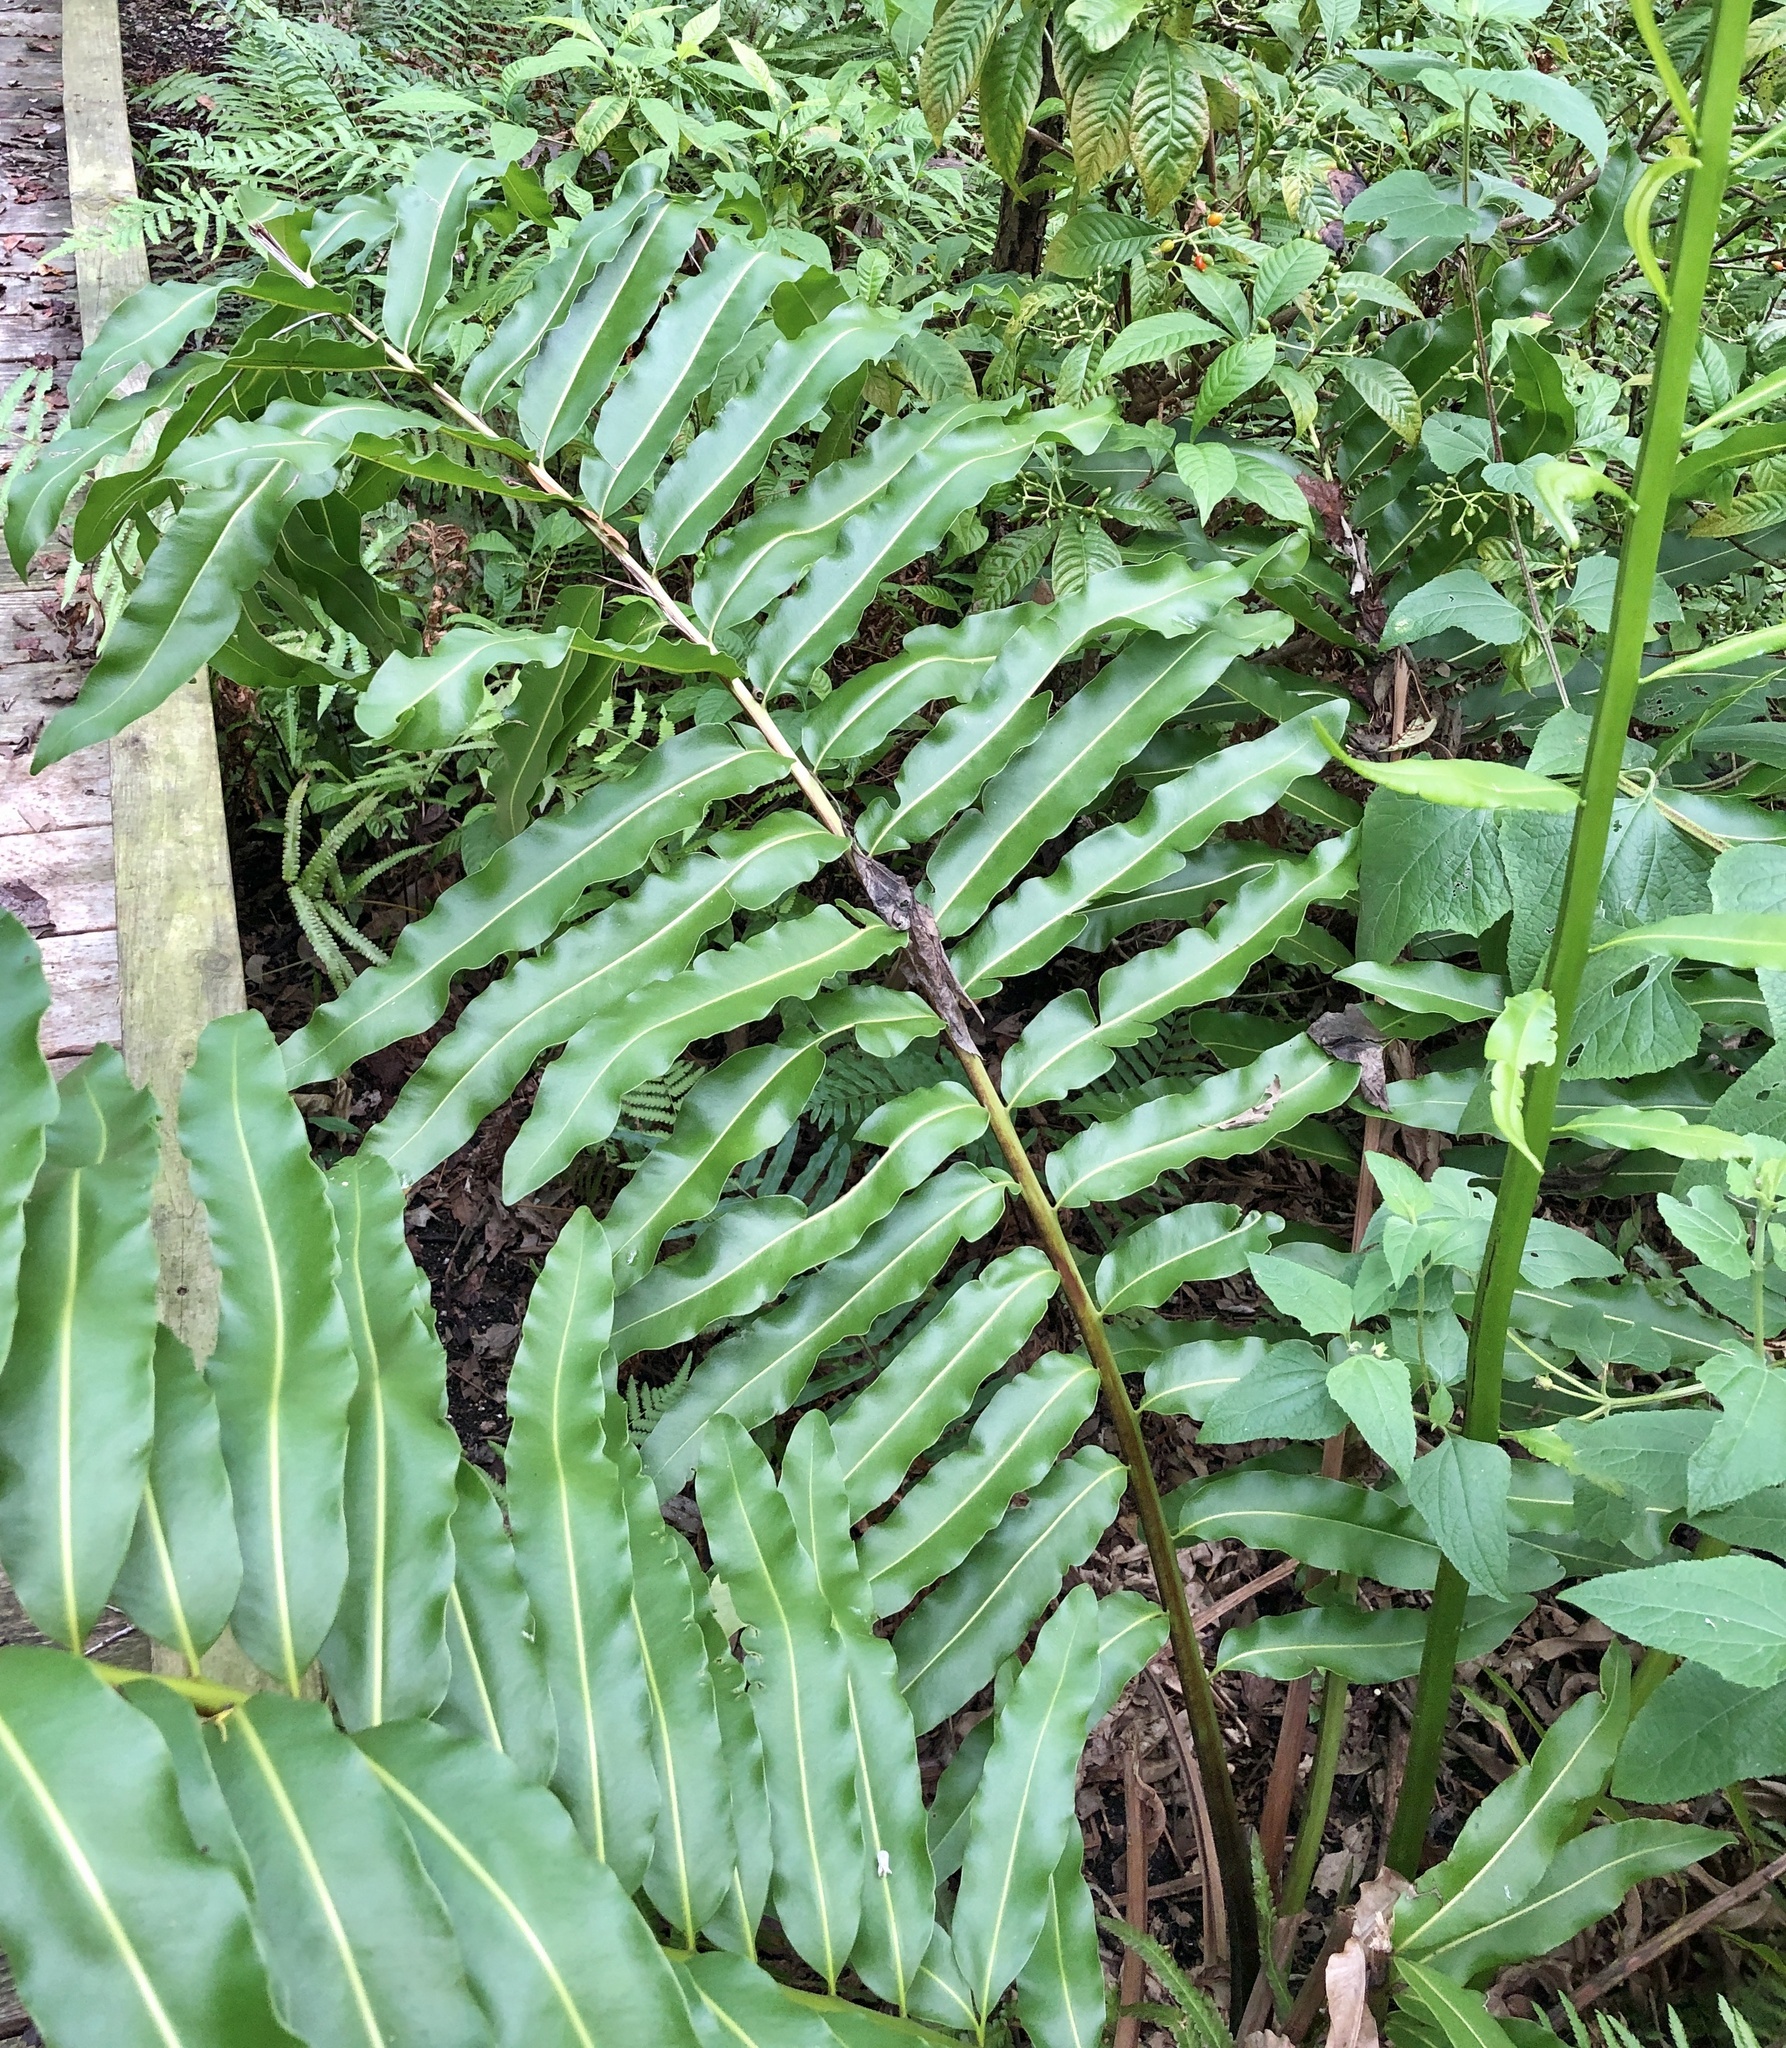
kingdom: Plantae
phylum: Tracheophyta
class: Polypodiopsida
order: Polypodiales
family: Pteridaceae
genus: Acrostichum
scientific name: Acrostichum danaeifolium
